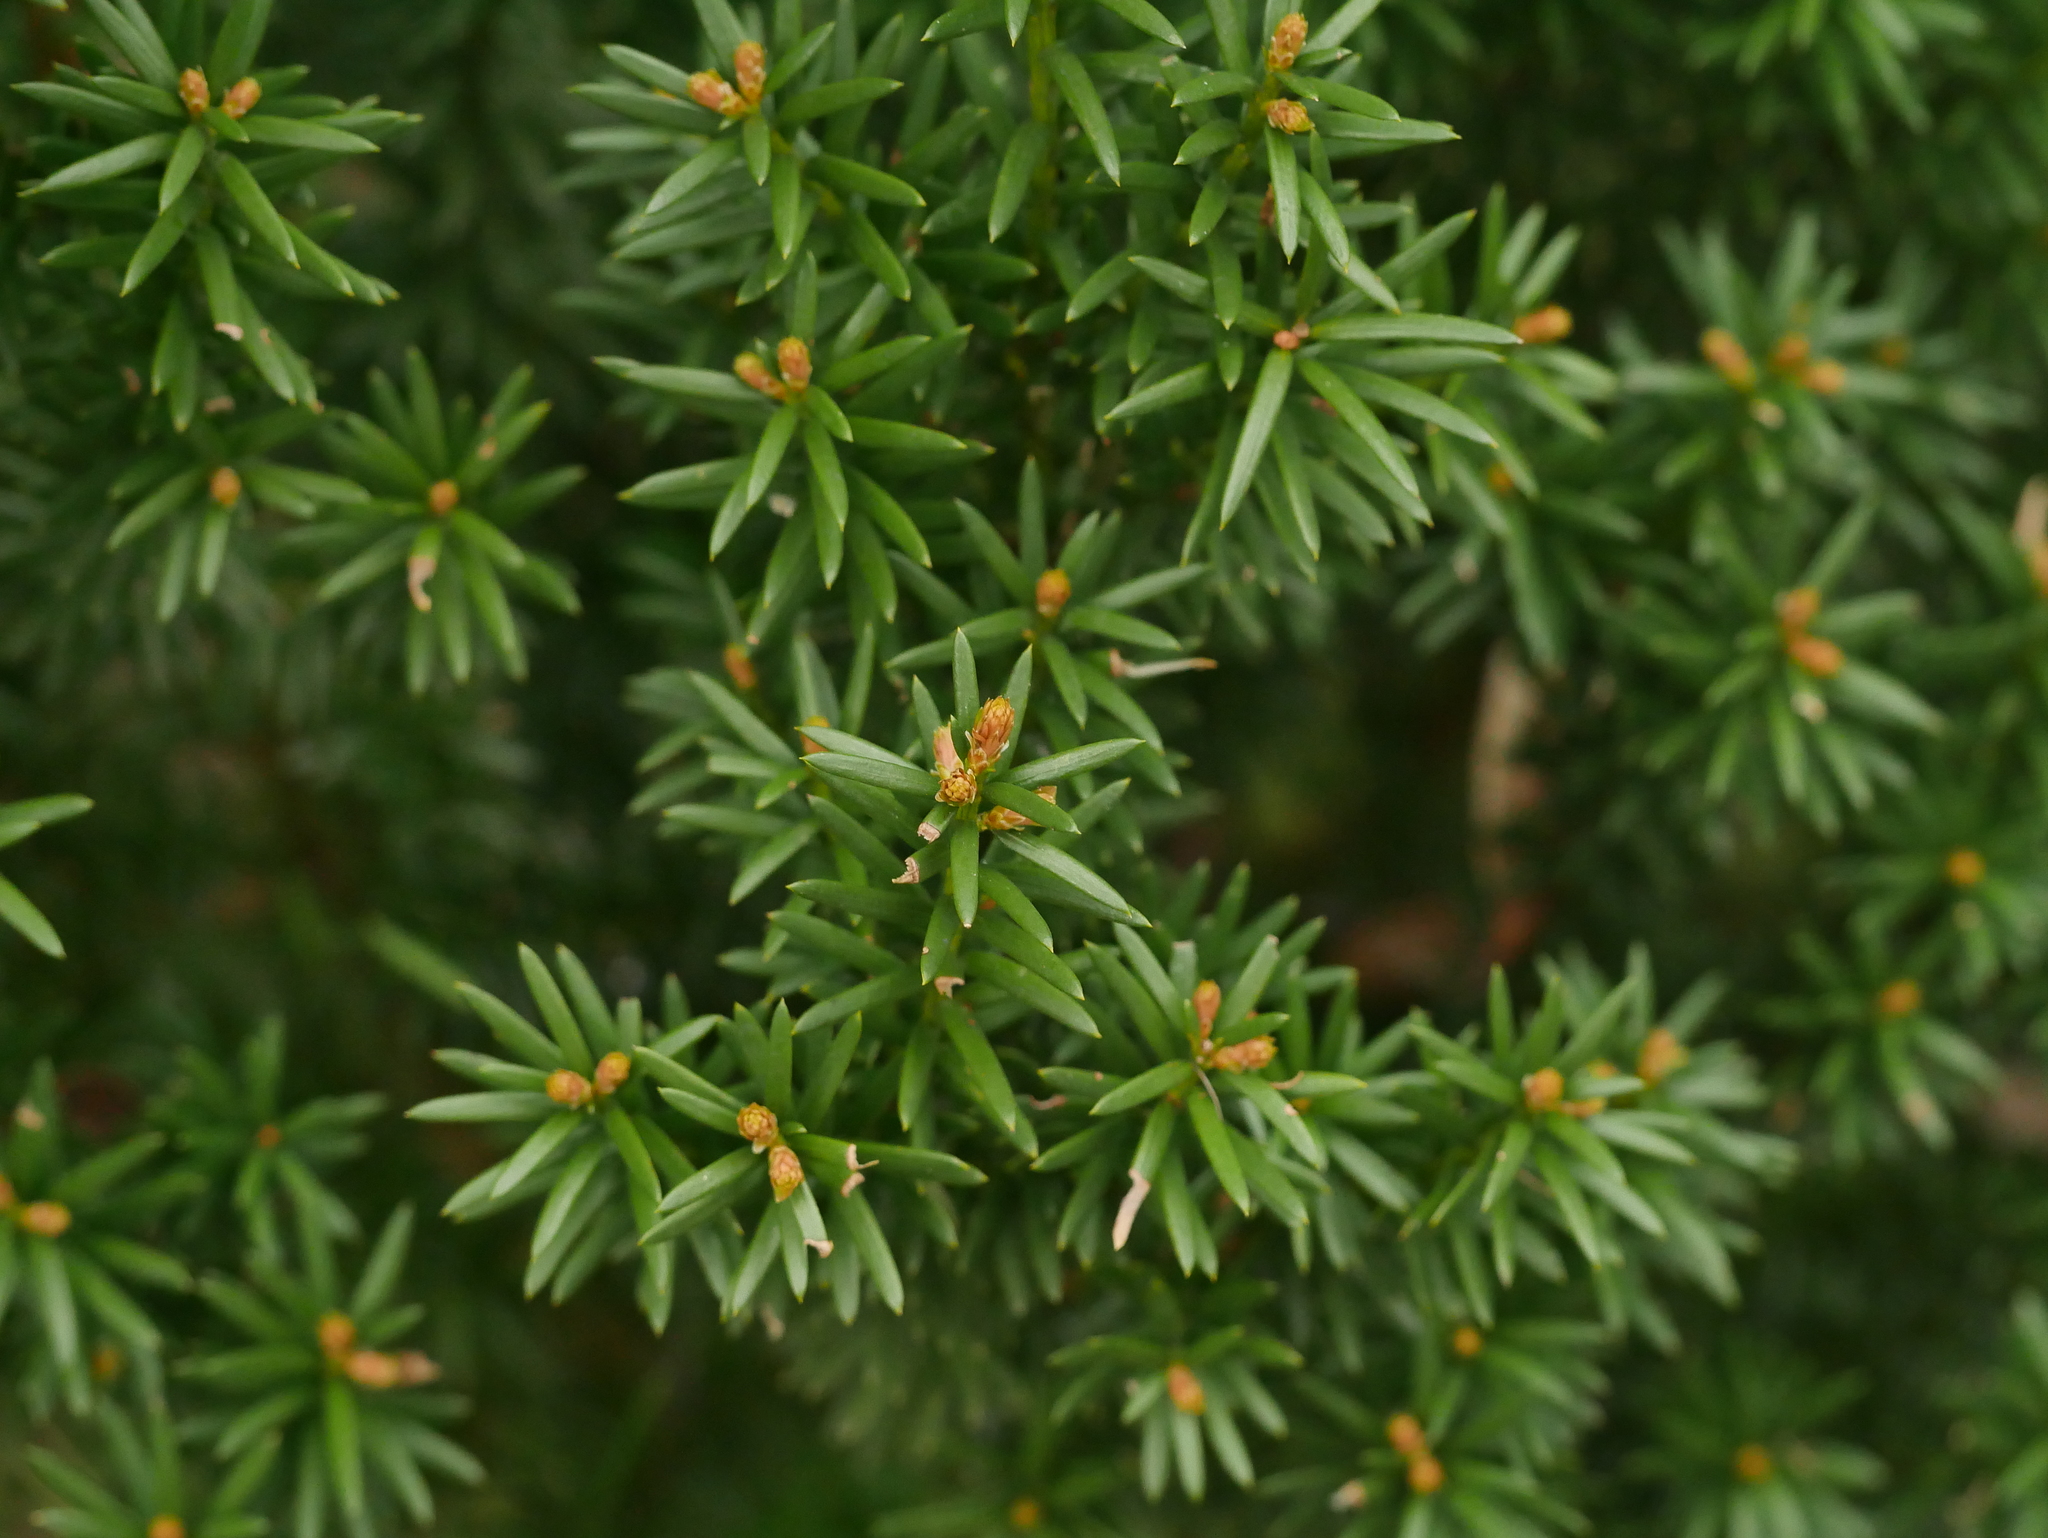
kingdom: Plantae
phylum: Tracheophyta
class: Pinopsida
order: Pinales
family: Taxaceae
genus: Taxus
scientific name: Taxus baccata
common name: Yew
